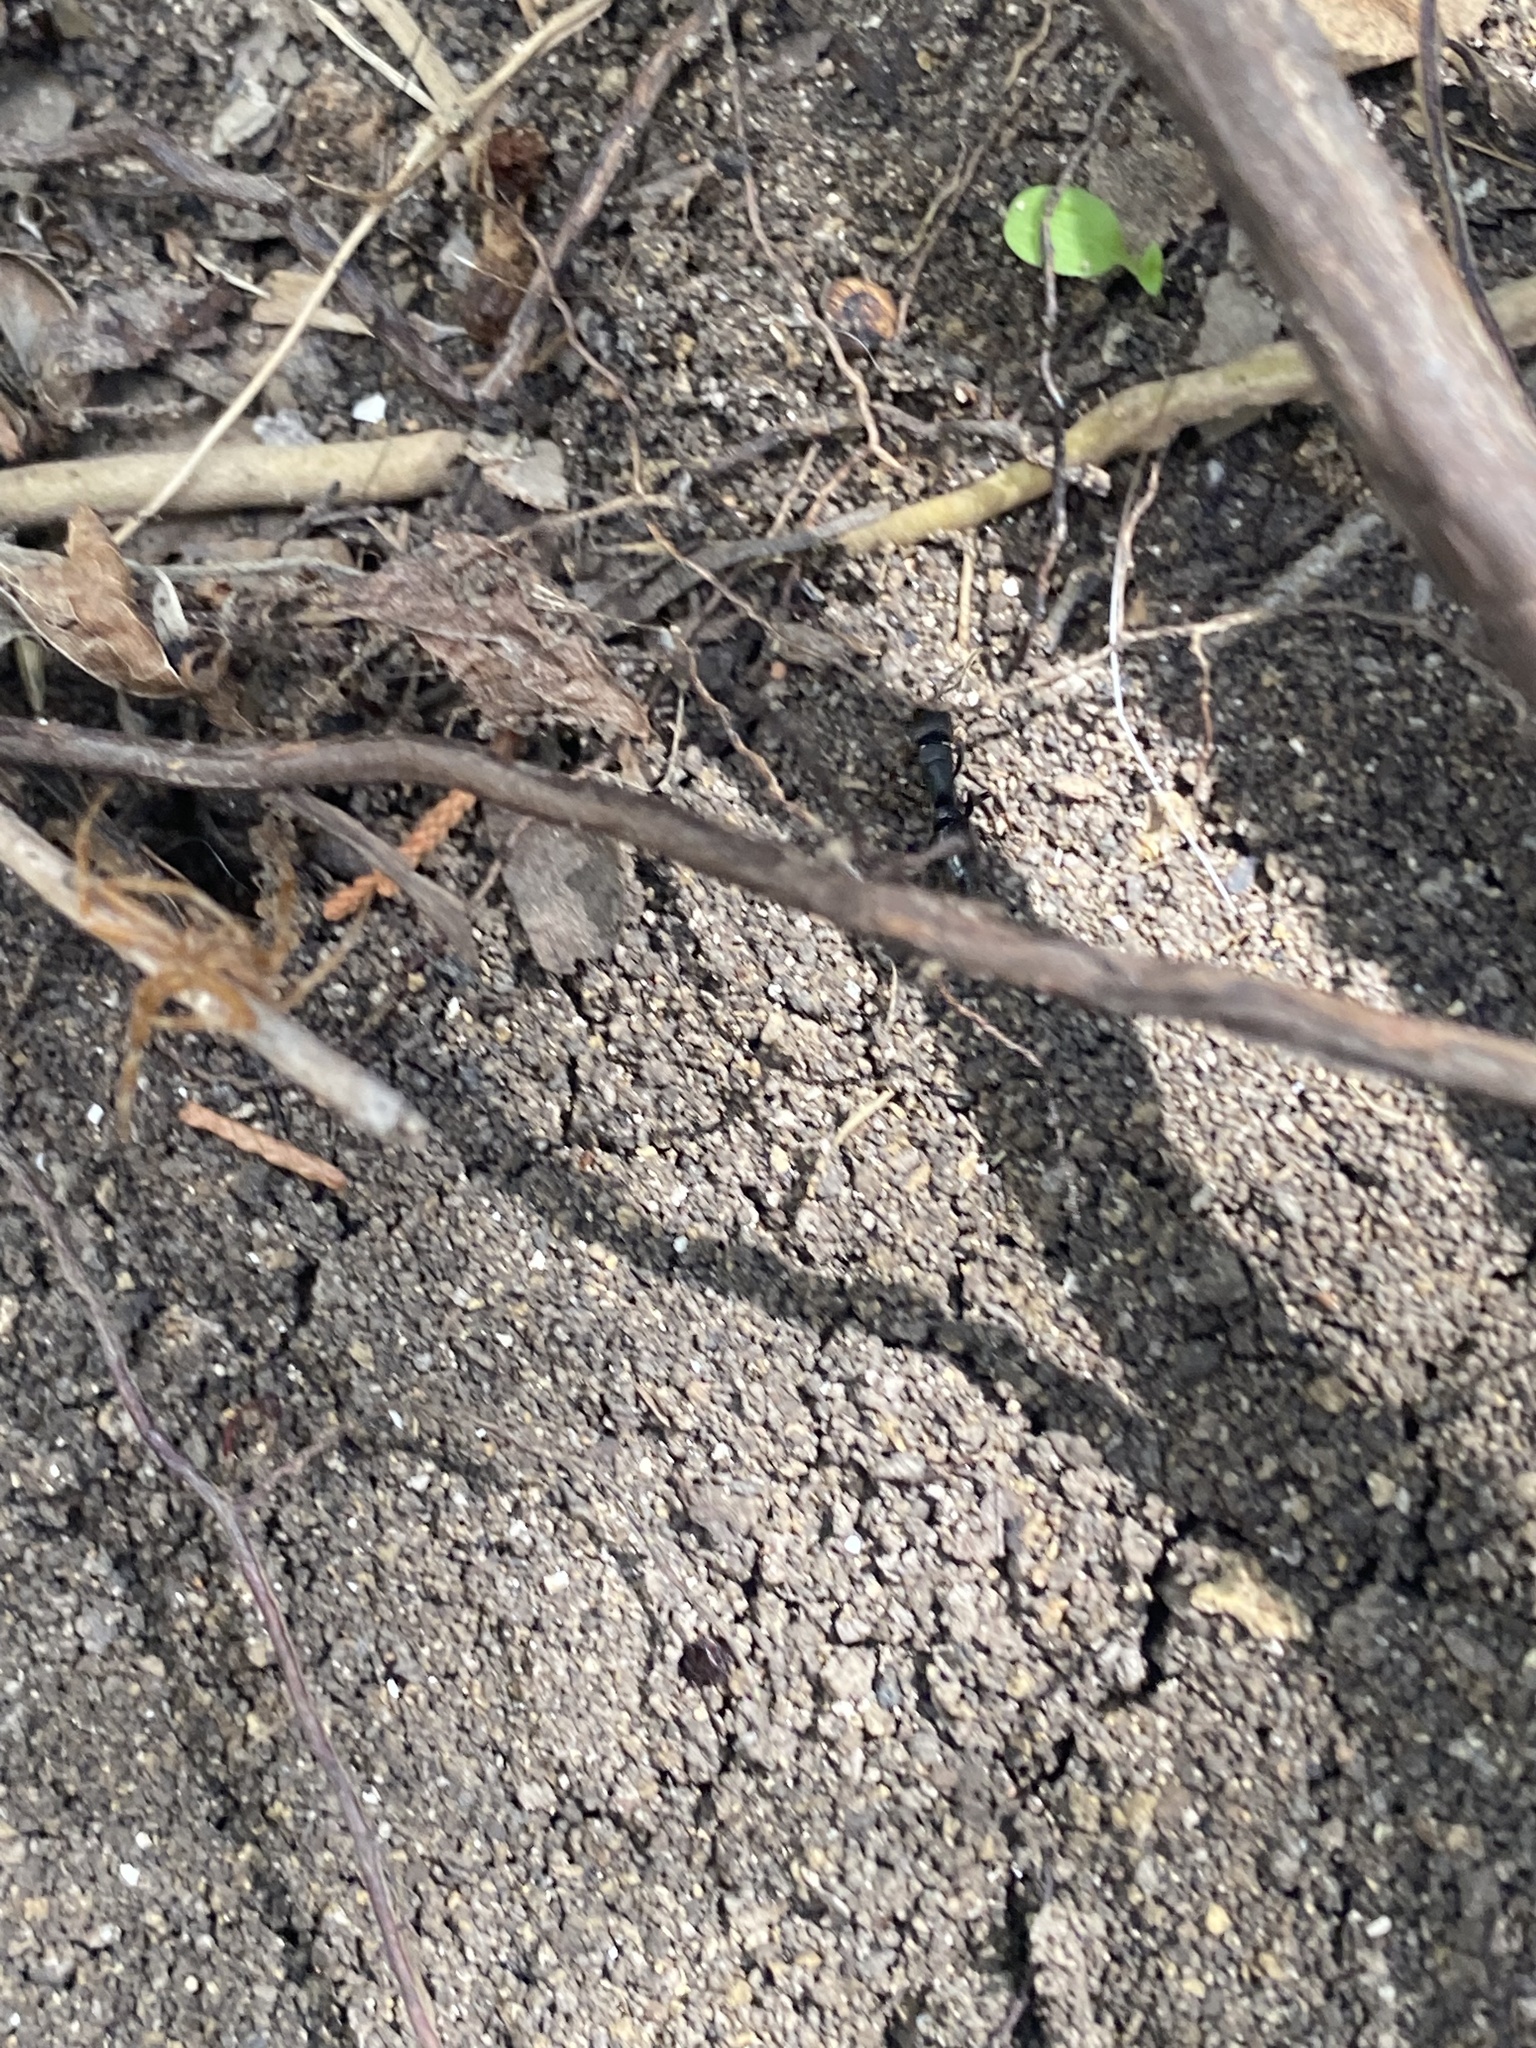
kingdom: Animalia
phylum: Arthropoda
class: Insecta
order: Hymenoptera
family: Formicidae
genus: Pachycondyla
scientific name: Pachycondyla harpax
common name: Ant
